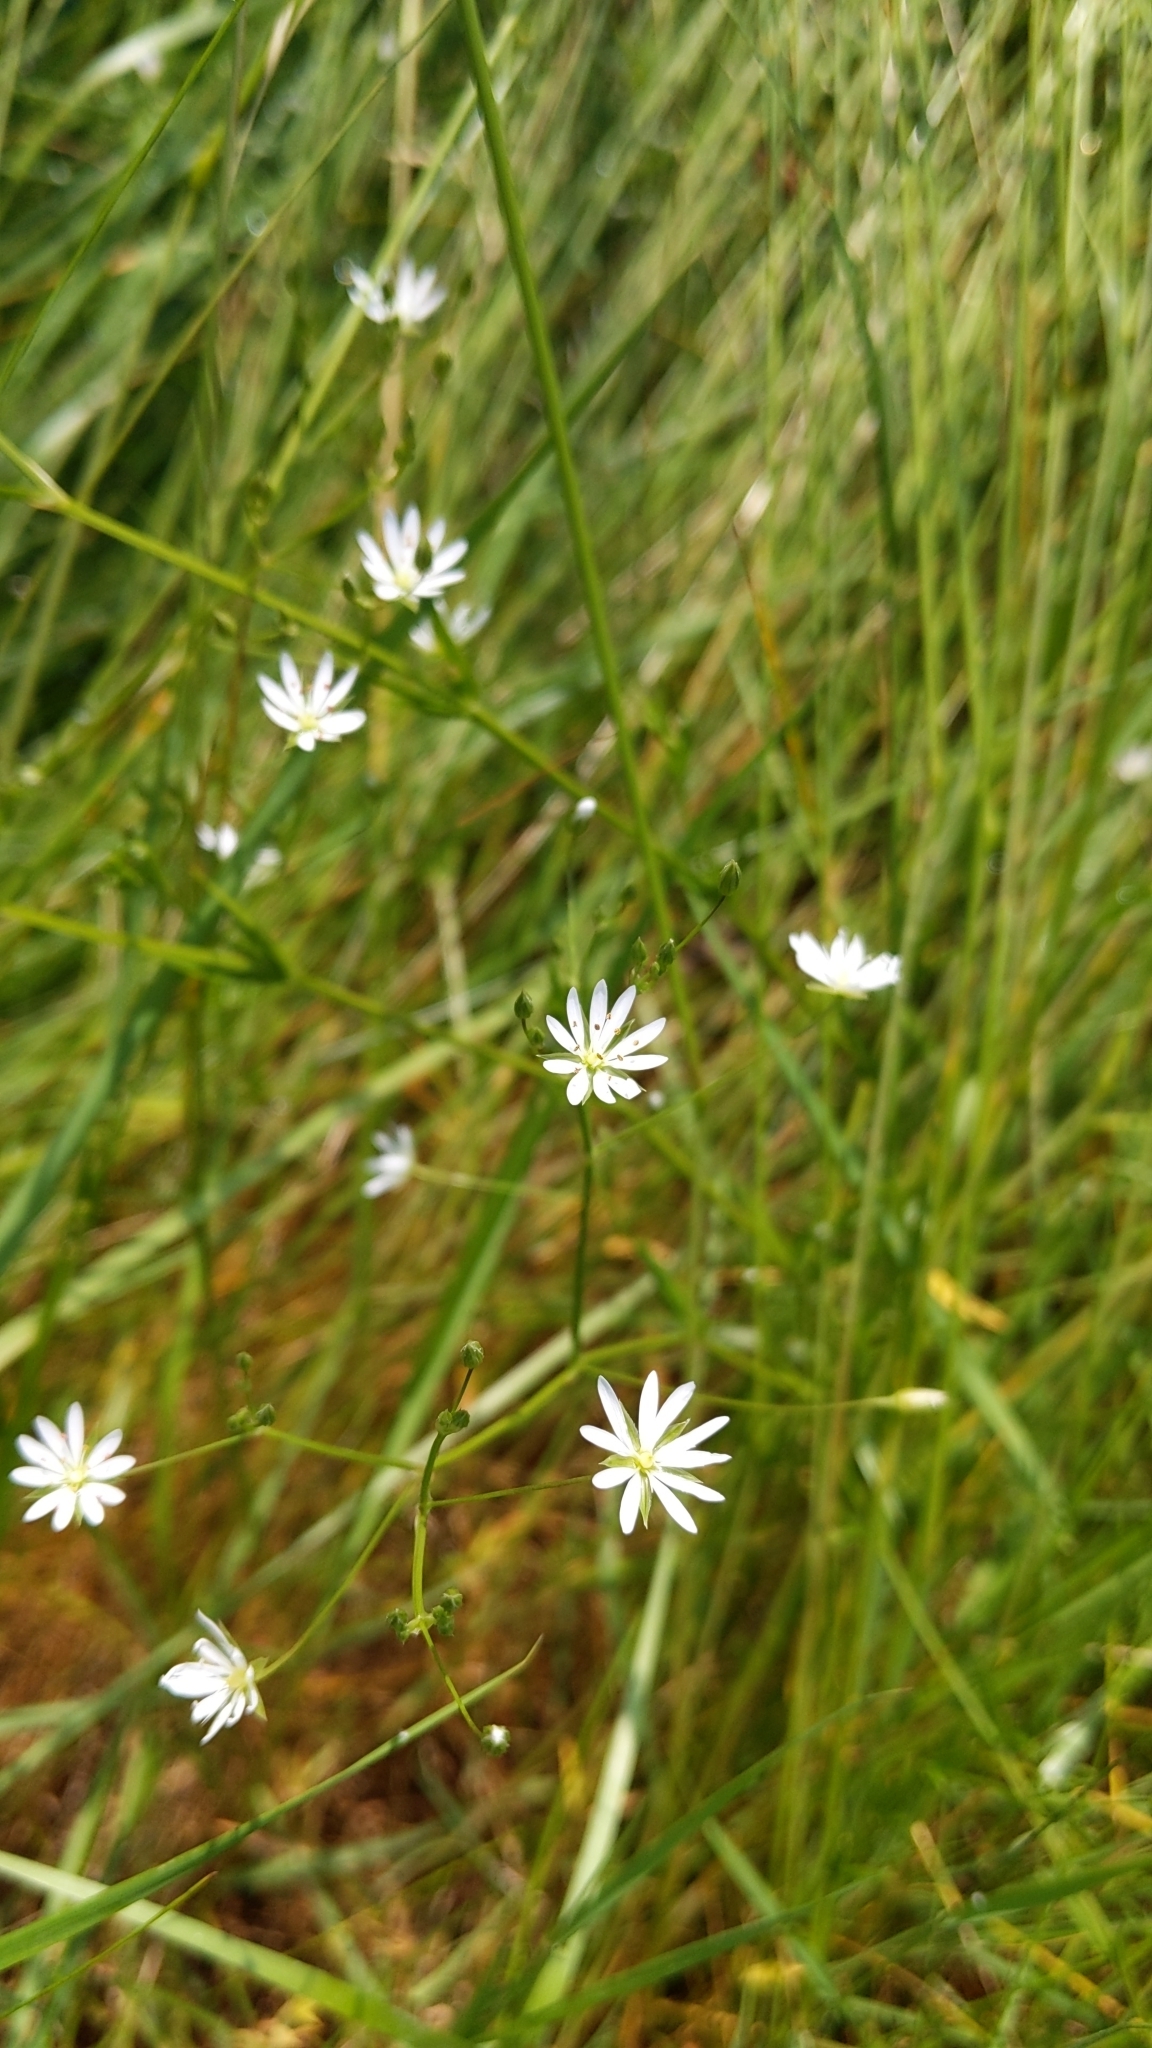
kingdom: Plantae
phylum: Tracheophyta
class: Magnoliopsida
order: Caryophyllales
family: Caryophyllaceae
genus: Stellaria
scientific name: Stellaria graminea
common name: Grass-like starwort
